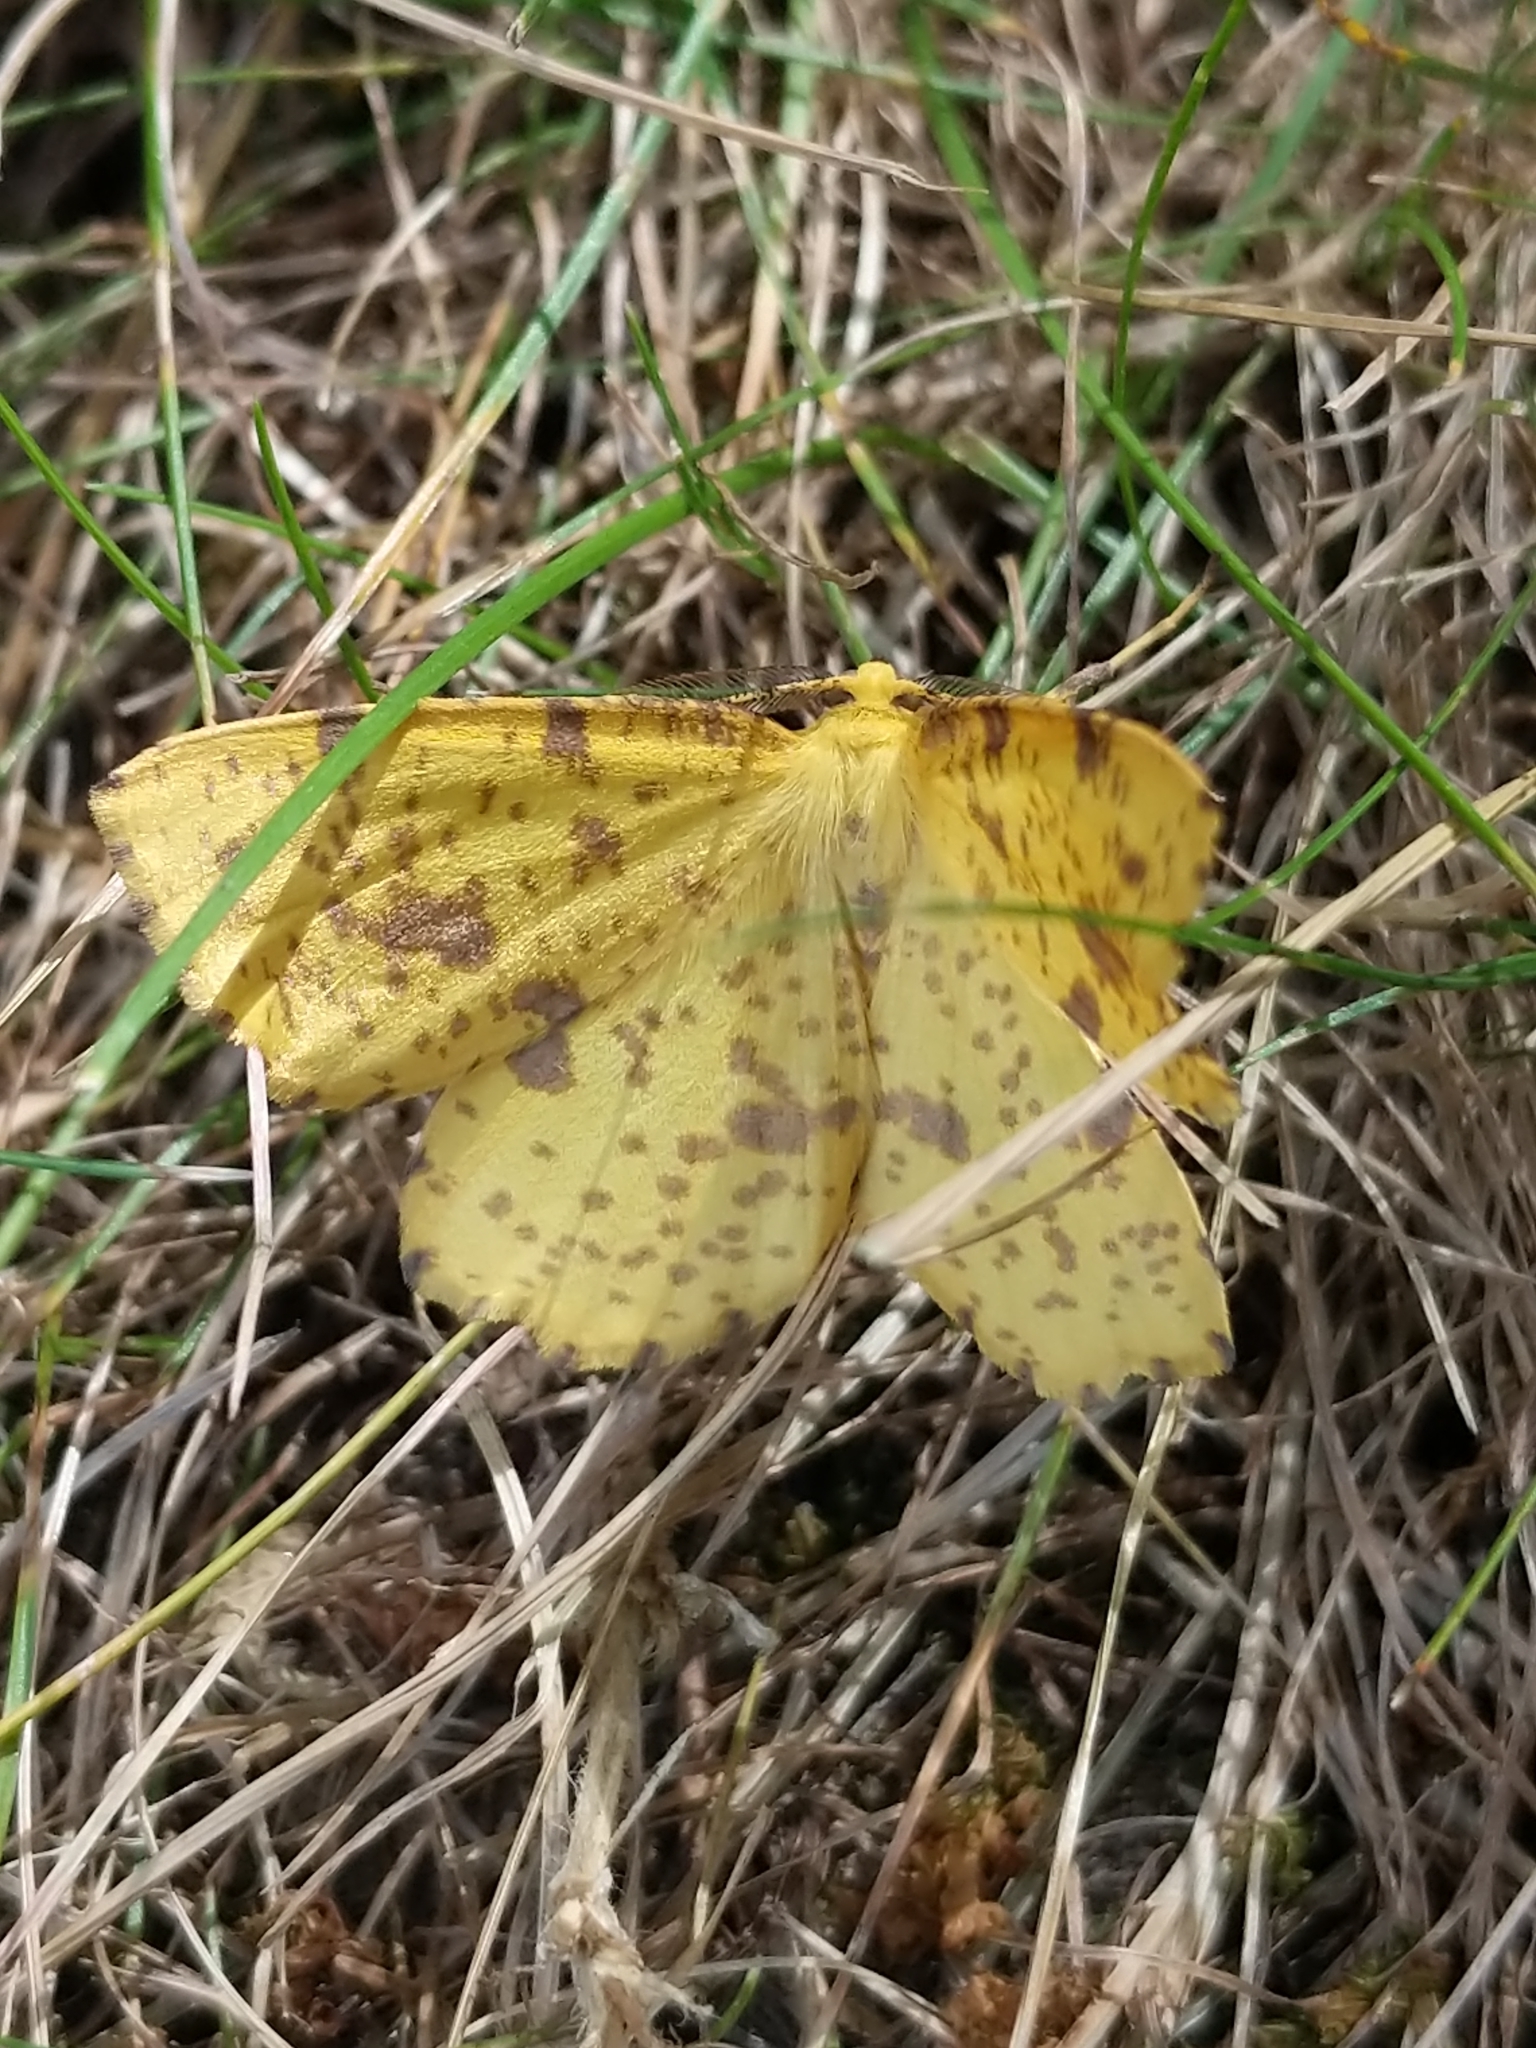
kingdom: Animalia
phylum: Arthropoda
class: Insecta
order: Lepidoptera
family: Geometridae
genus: Xanthotype
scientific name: Xanthotype
